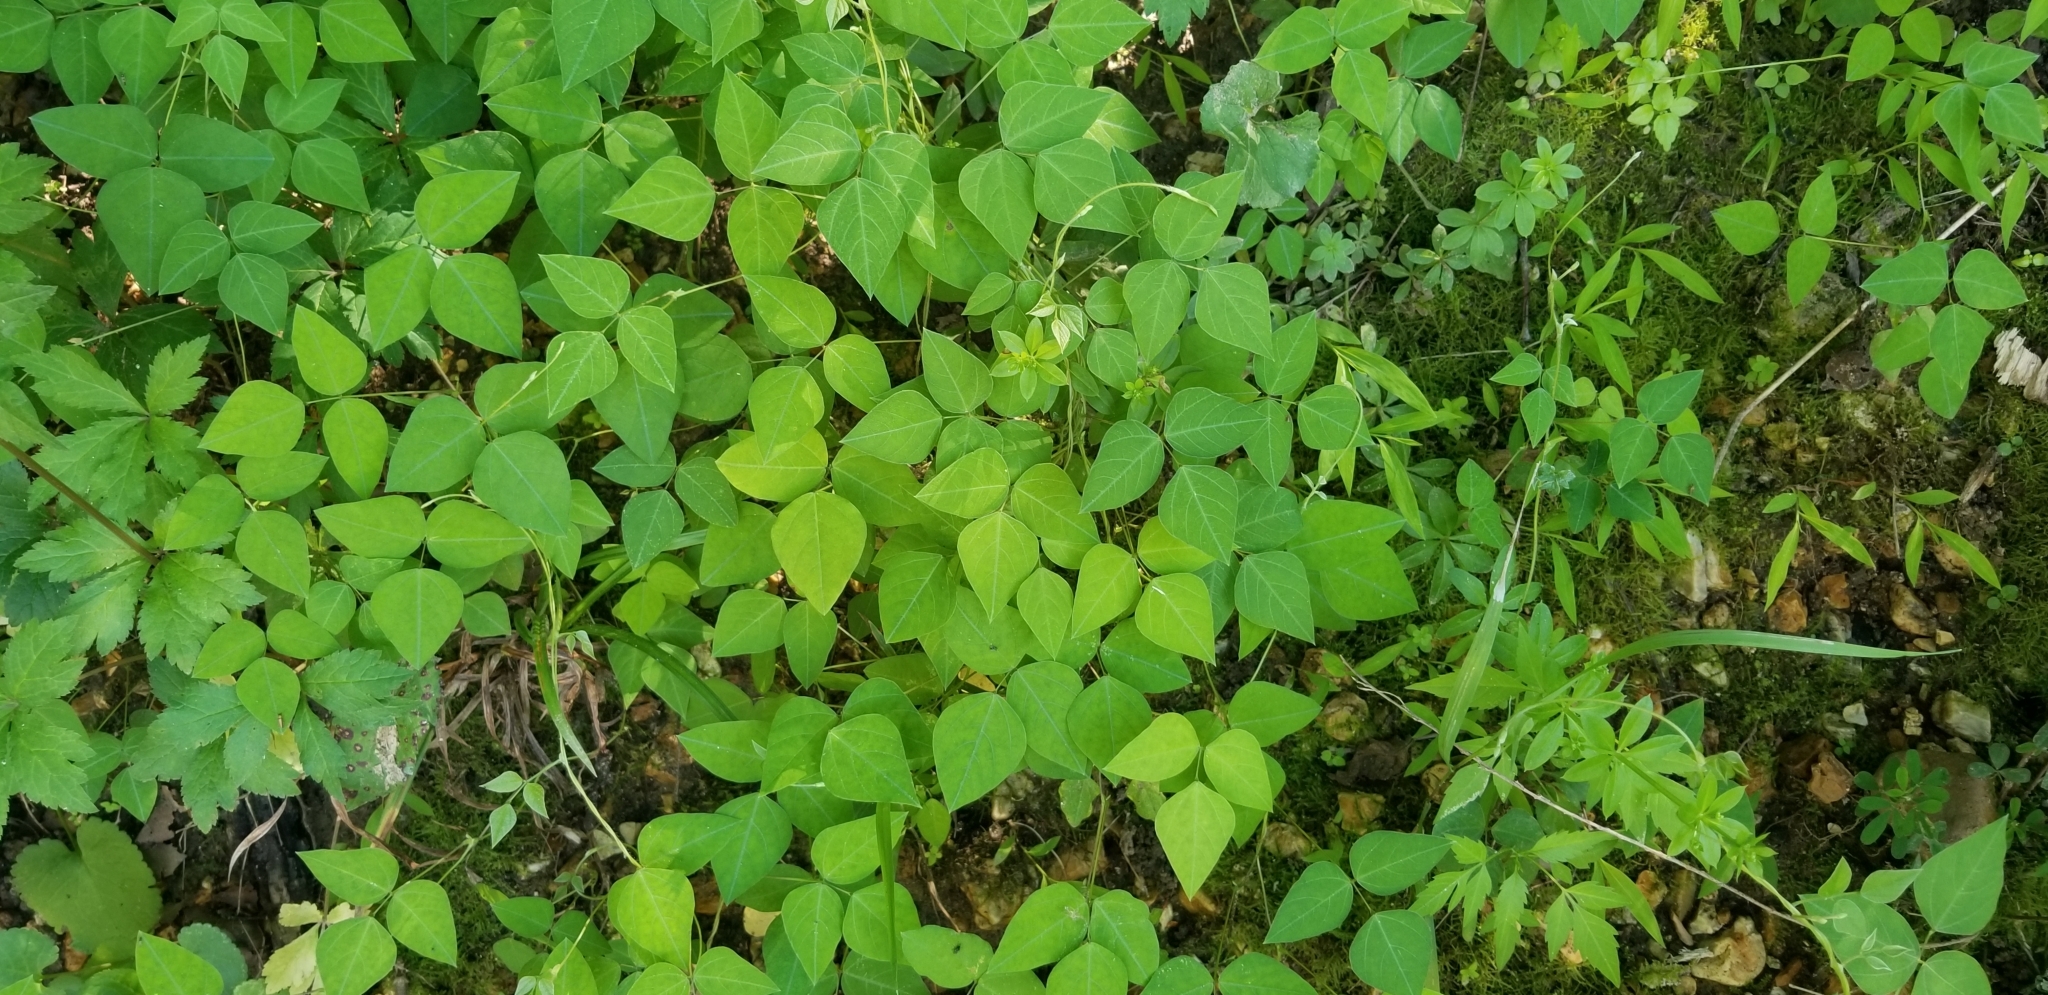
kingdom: Plantae
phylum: Tracheophyta
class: Magnoliopsida
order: Fabales
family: Fabaceae
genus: Amphicarpaea
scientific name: Amphicarpaea bracteata
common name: American hog peanut
